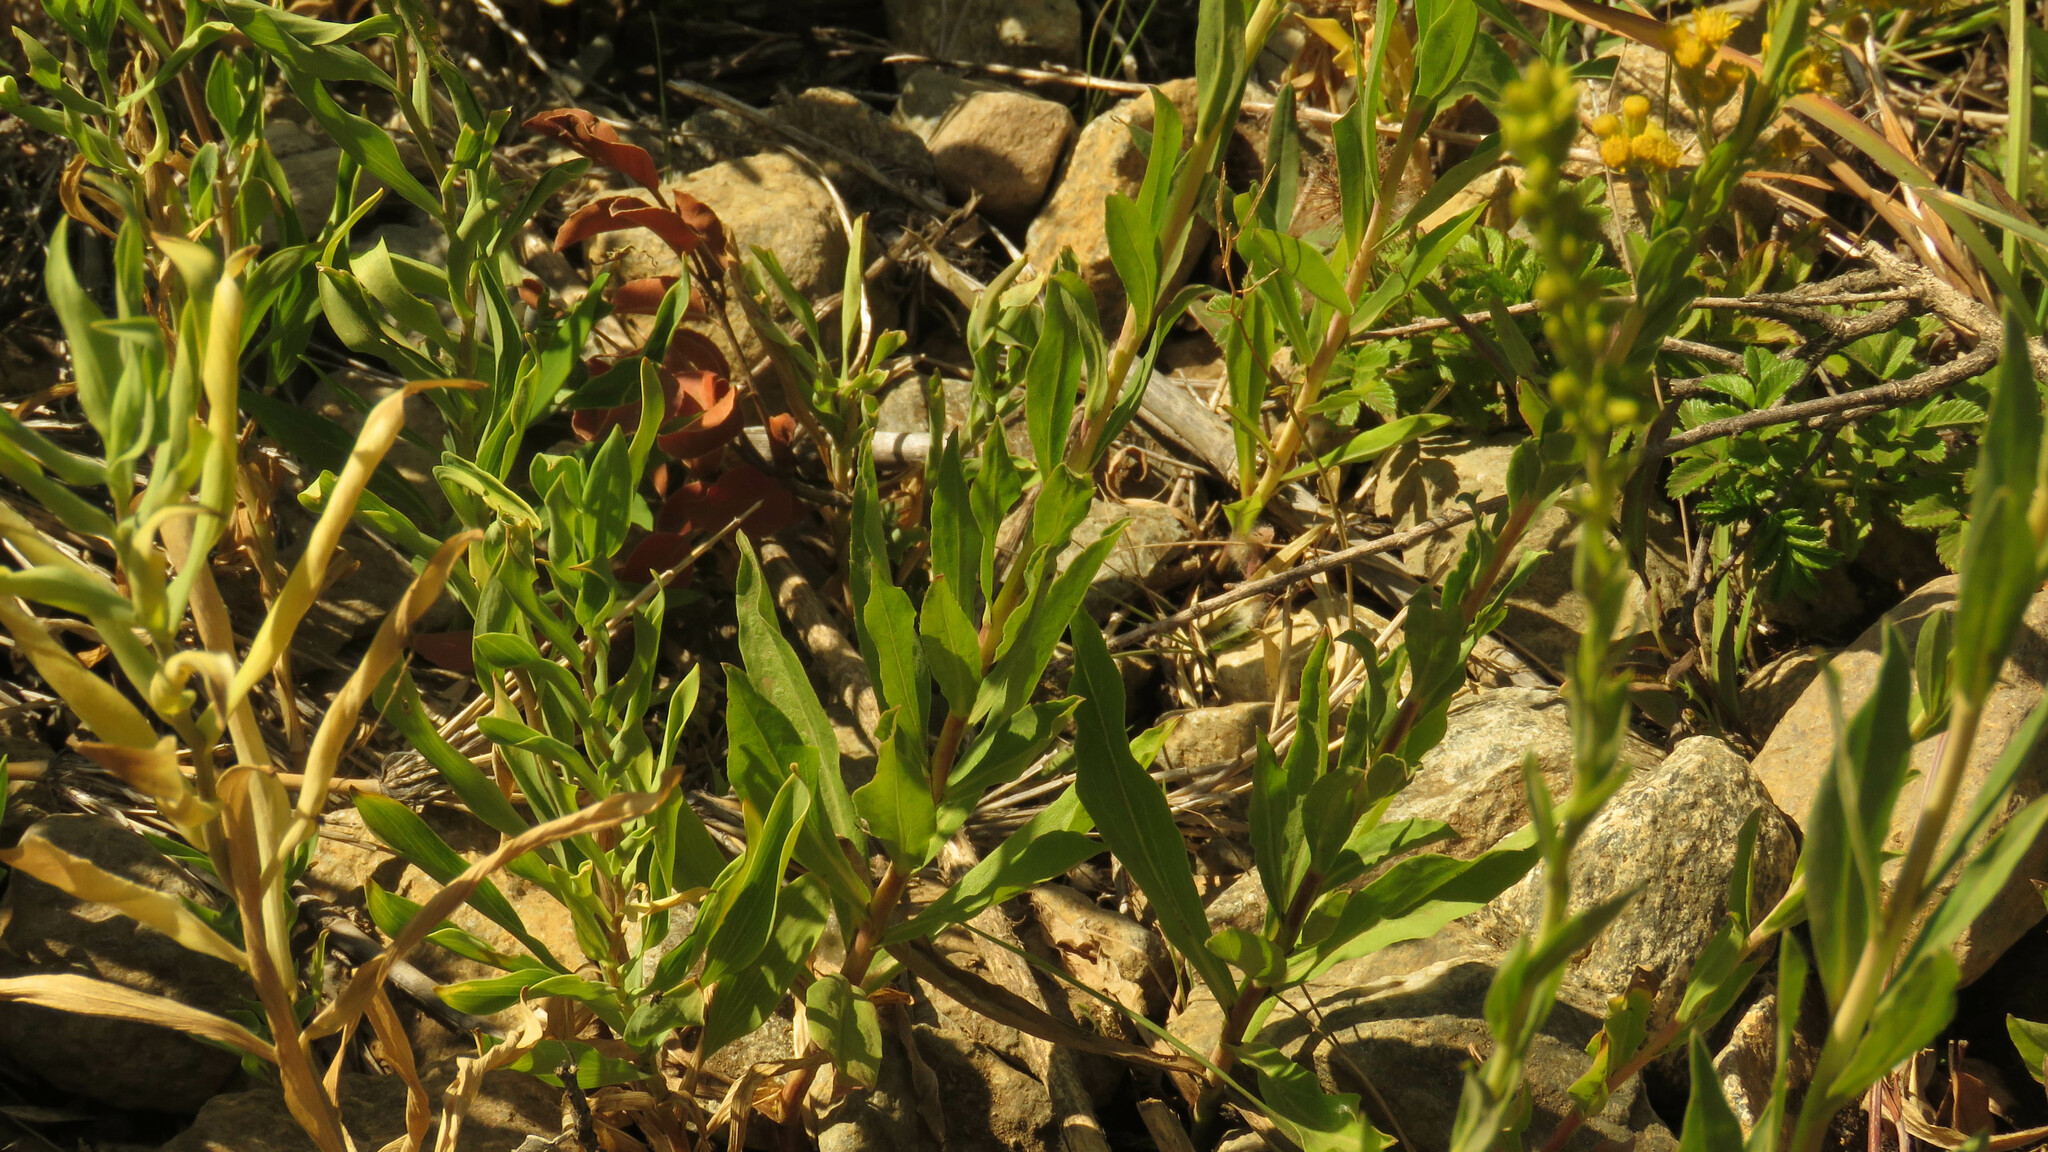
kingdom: Plantae
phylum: Tracheophyta
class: Magnoliopsida
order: Asterales
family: Asteraceae
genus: Solidago
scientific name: Solidago chilensis
